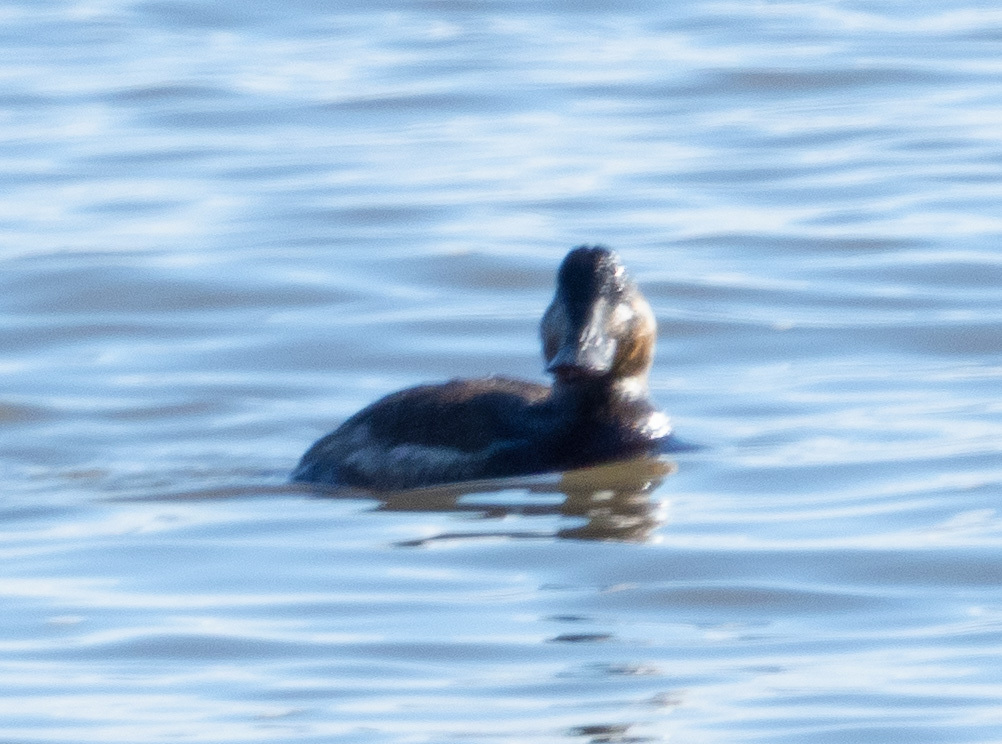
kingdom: Animalia
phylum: Chordata
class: Aves
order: Anseriformes
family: Anatidae
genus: Oxyura
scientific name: Oxyura jamaicensis
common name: Ruddy duck
